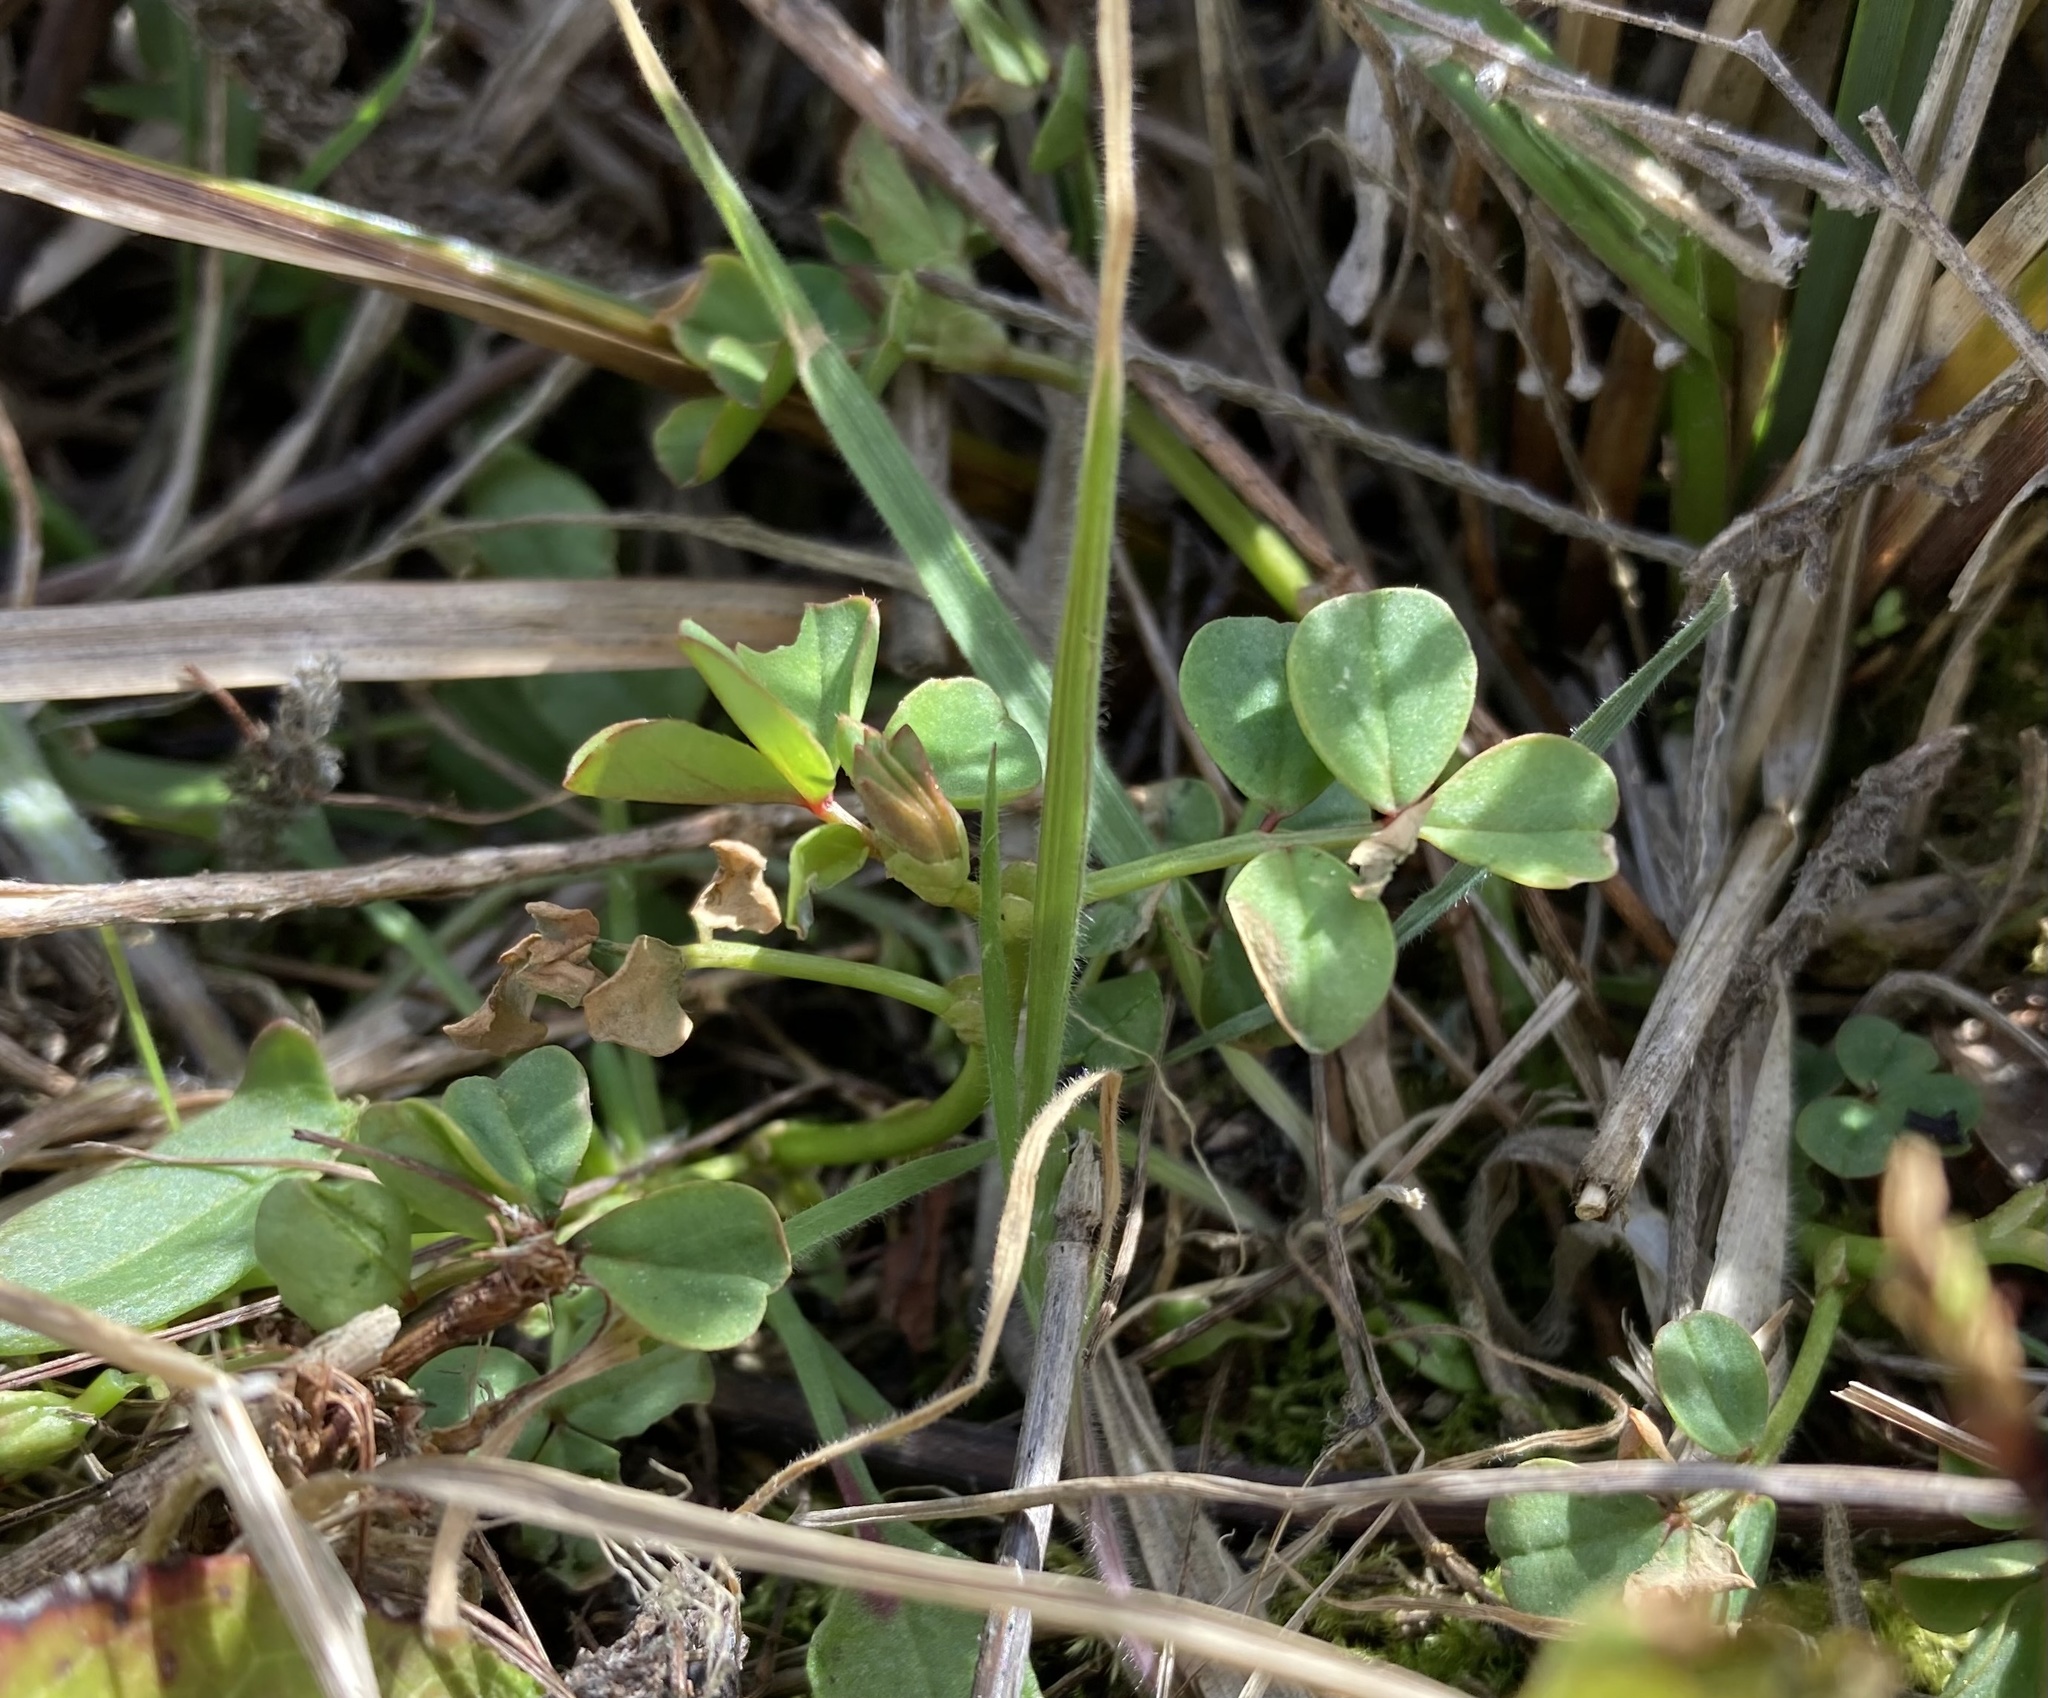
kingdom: Plantae
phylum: Tracheophyta
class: Magnoliopsida
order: Fabales
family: Fabaceae
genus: Hosackia
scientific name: Hosackia gracilis
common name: Seaside bird's-foot lotus
